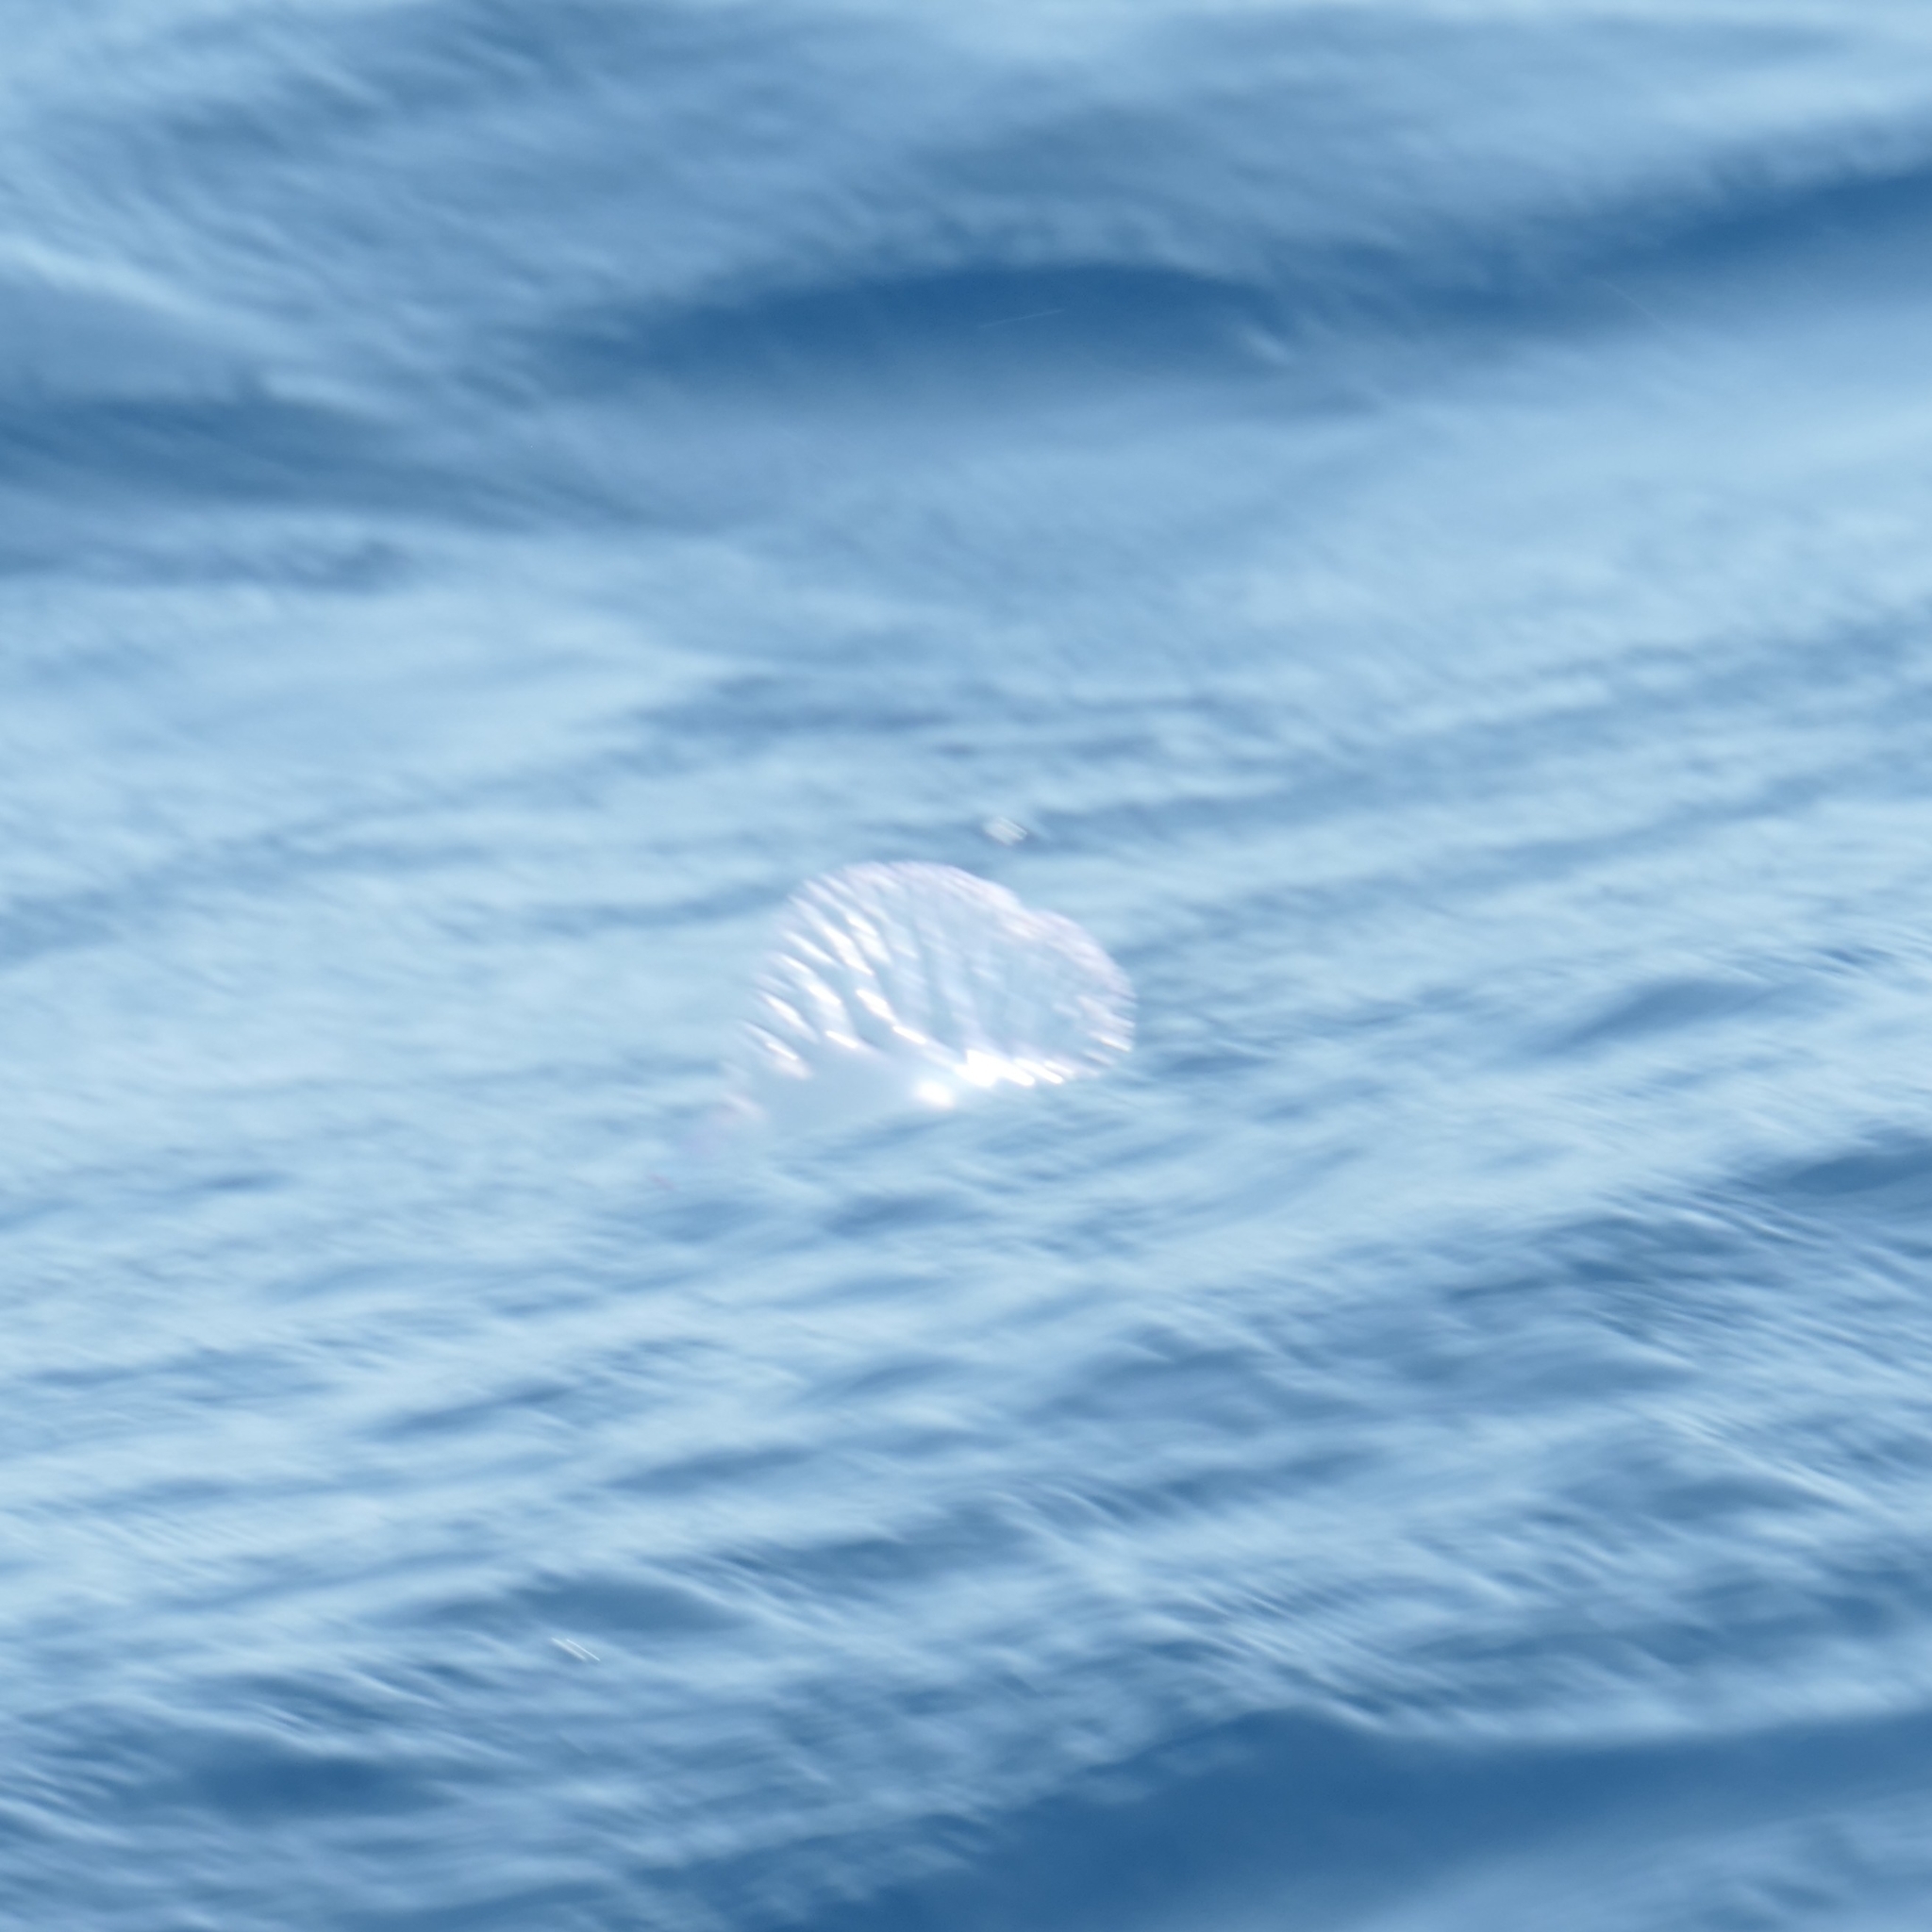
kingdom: Animalia
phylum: Cnidaria
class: Hydrozoa
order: Siphonophorae
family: Physaliidae
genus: Physalia
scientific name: Physalia physalis
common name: Portuguese man-of-war
